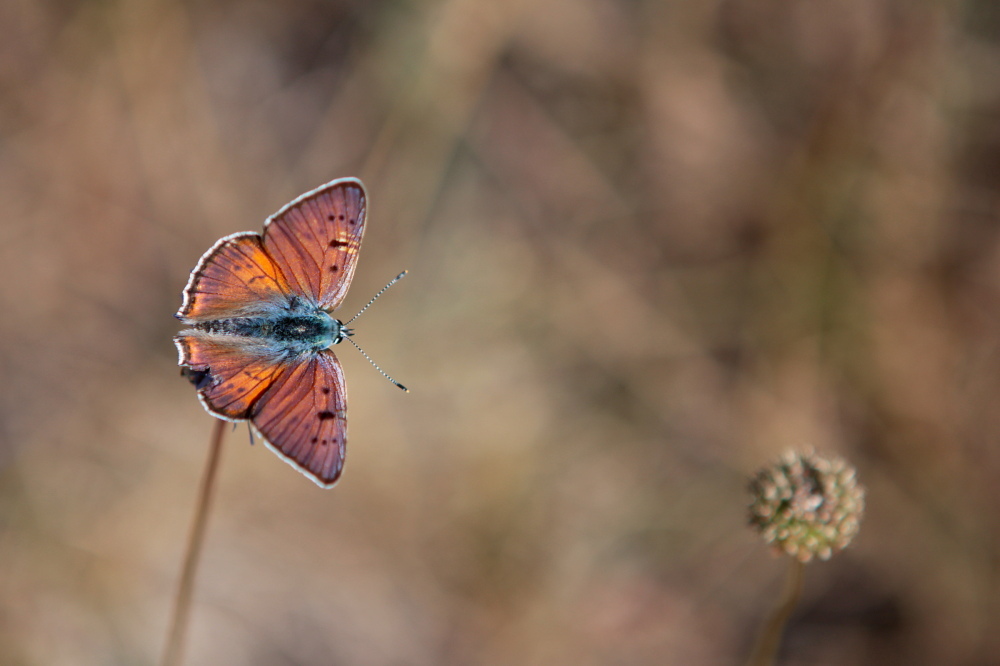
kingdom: Animalia
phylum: Arthropoda
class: Insecta
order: Lepidoptera
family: Lycaenidae
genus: Lycaena
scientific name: Lycaena alciphron
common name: Purple-shot copper
